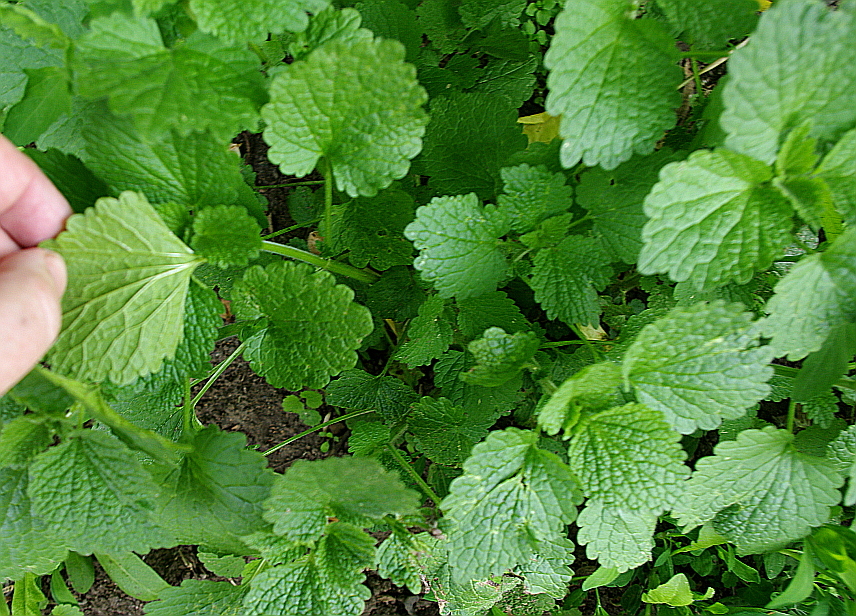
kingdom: Plantae
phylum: Tracheophyta
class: Magnoliopsida
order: Lamiales
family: Lamiaceae
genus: Ballota
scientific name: Ballota nigra
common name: Black horehound
